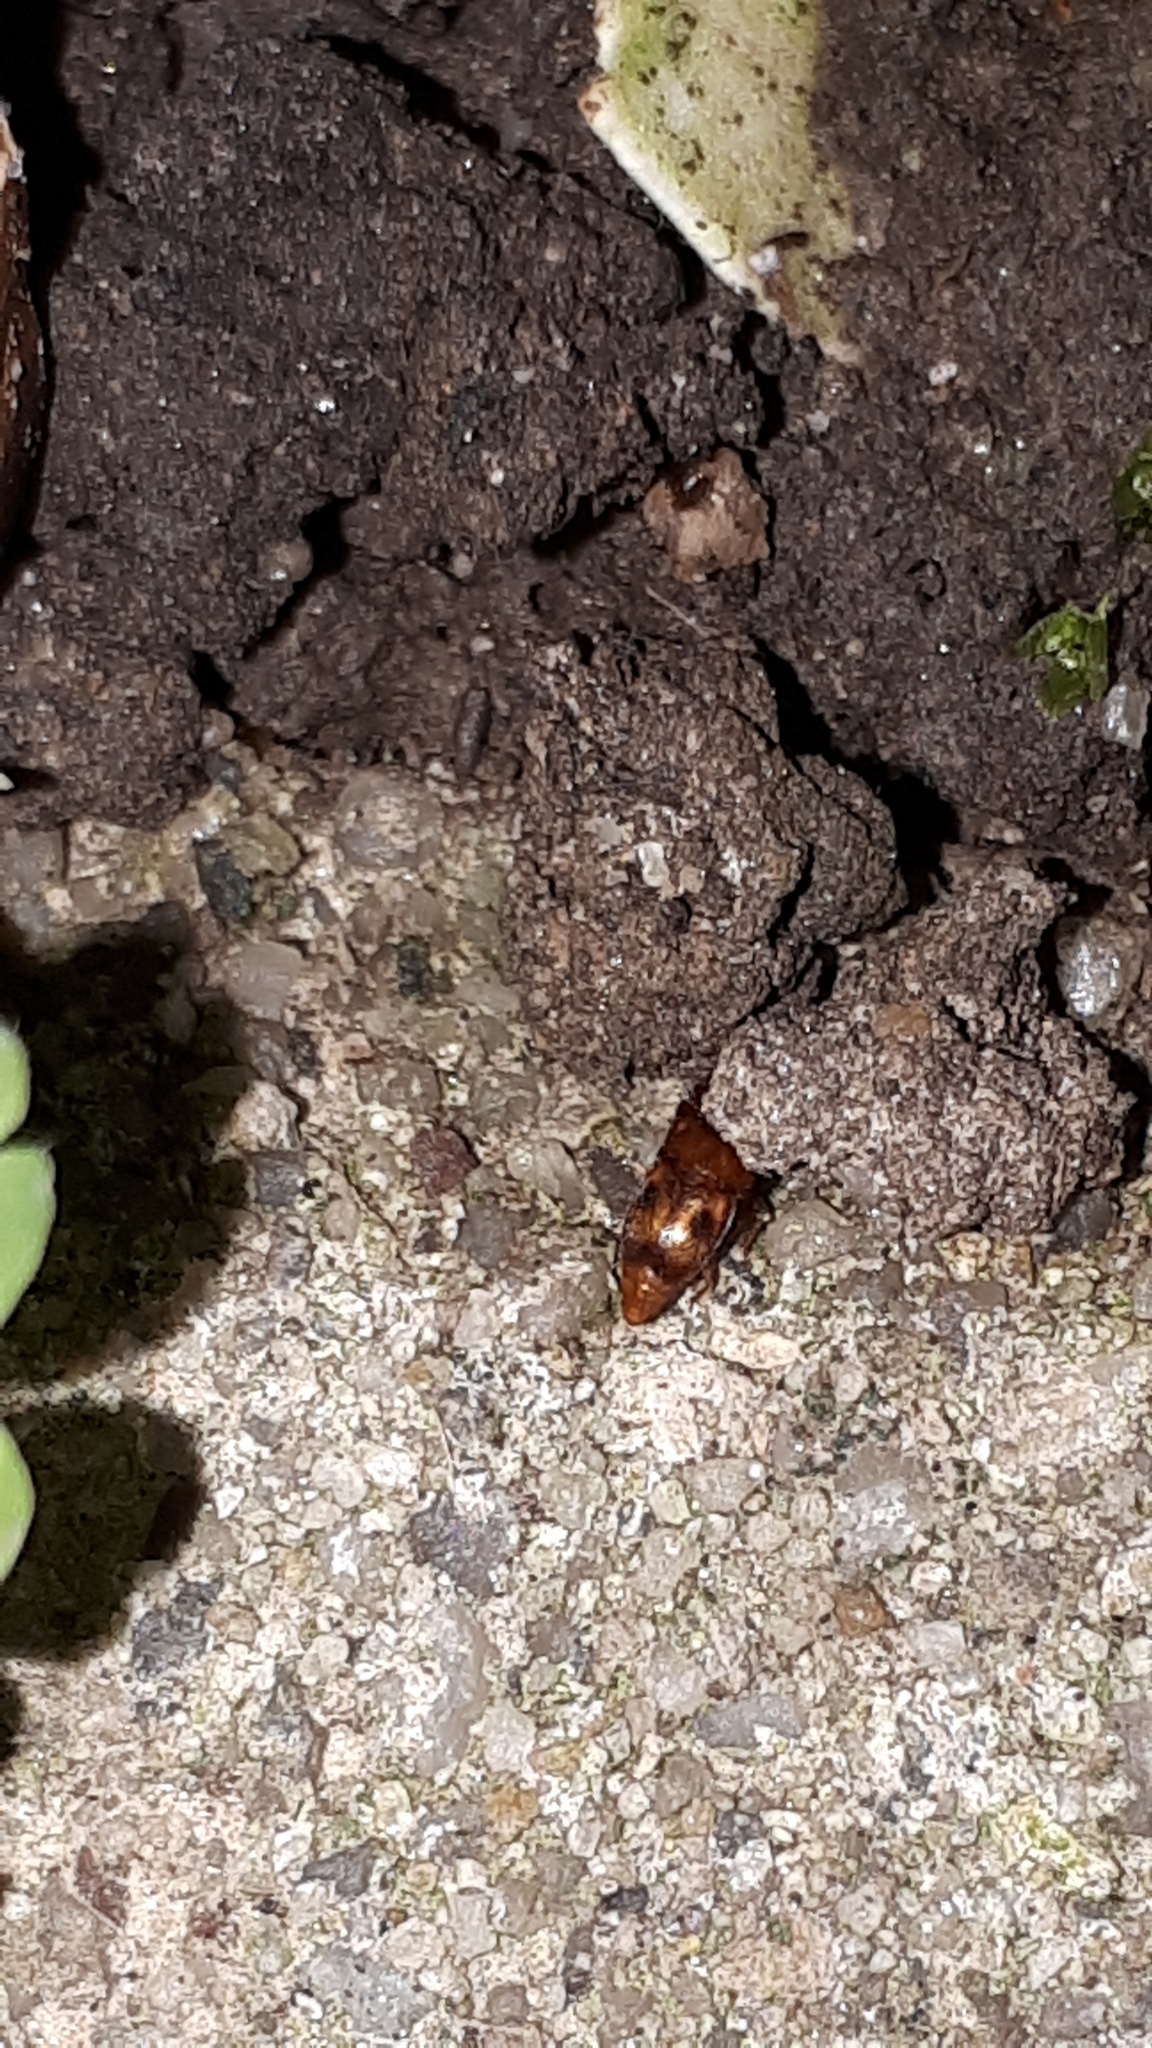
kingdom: Animalia
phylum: Arthropoda
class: Insecta
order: Coleoptera
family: Nitidulidae
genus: Epuraea
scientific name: Epuraea ocularis
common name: Sap beetle
